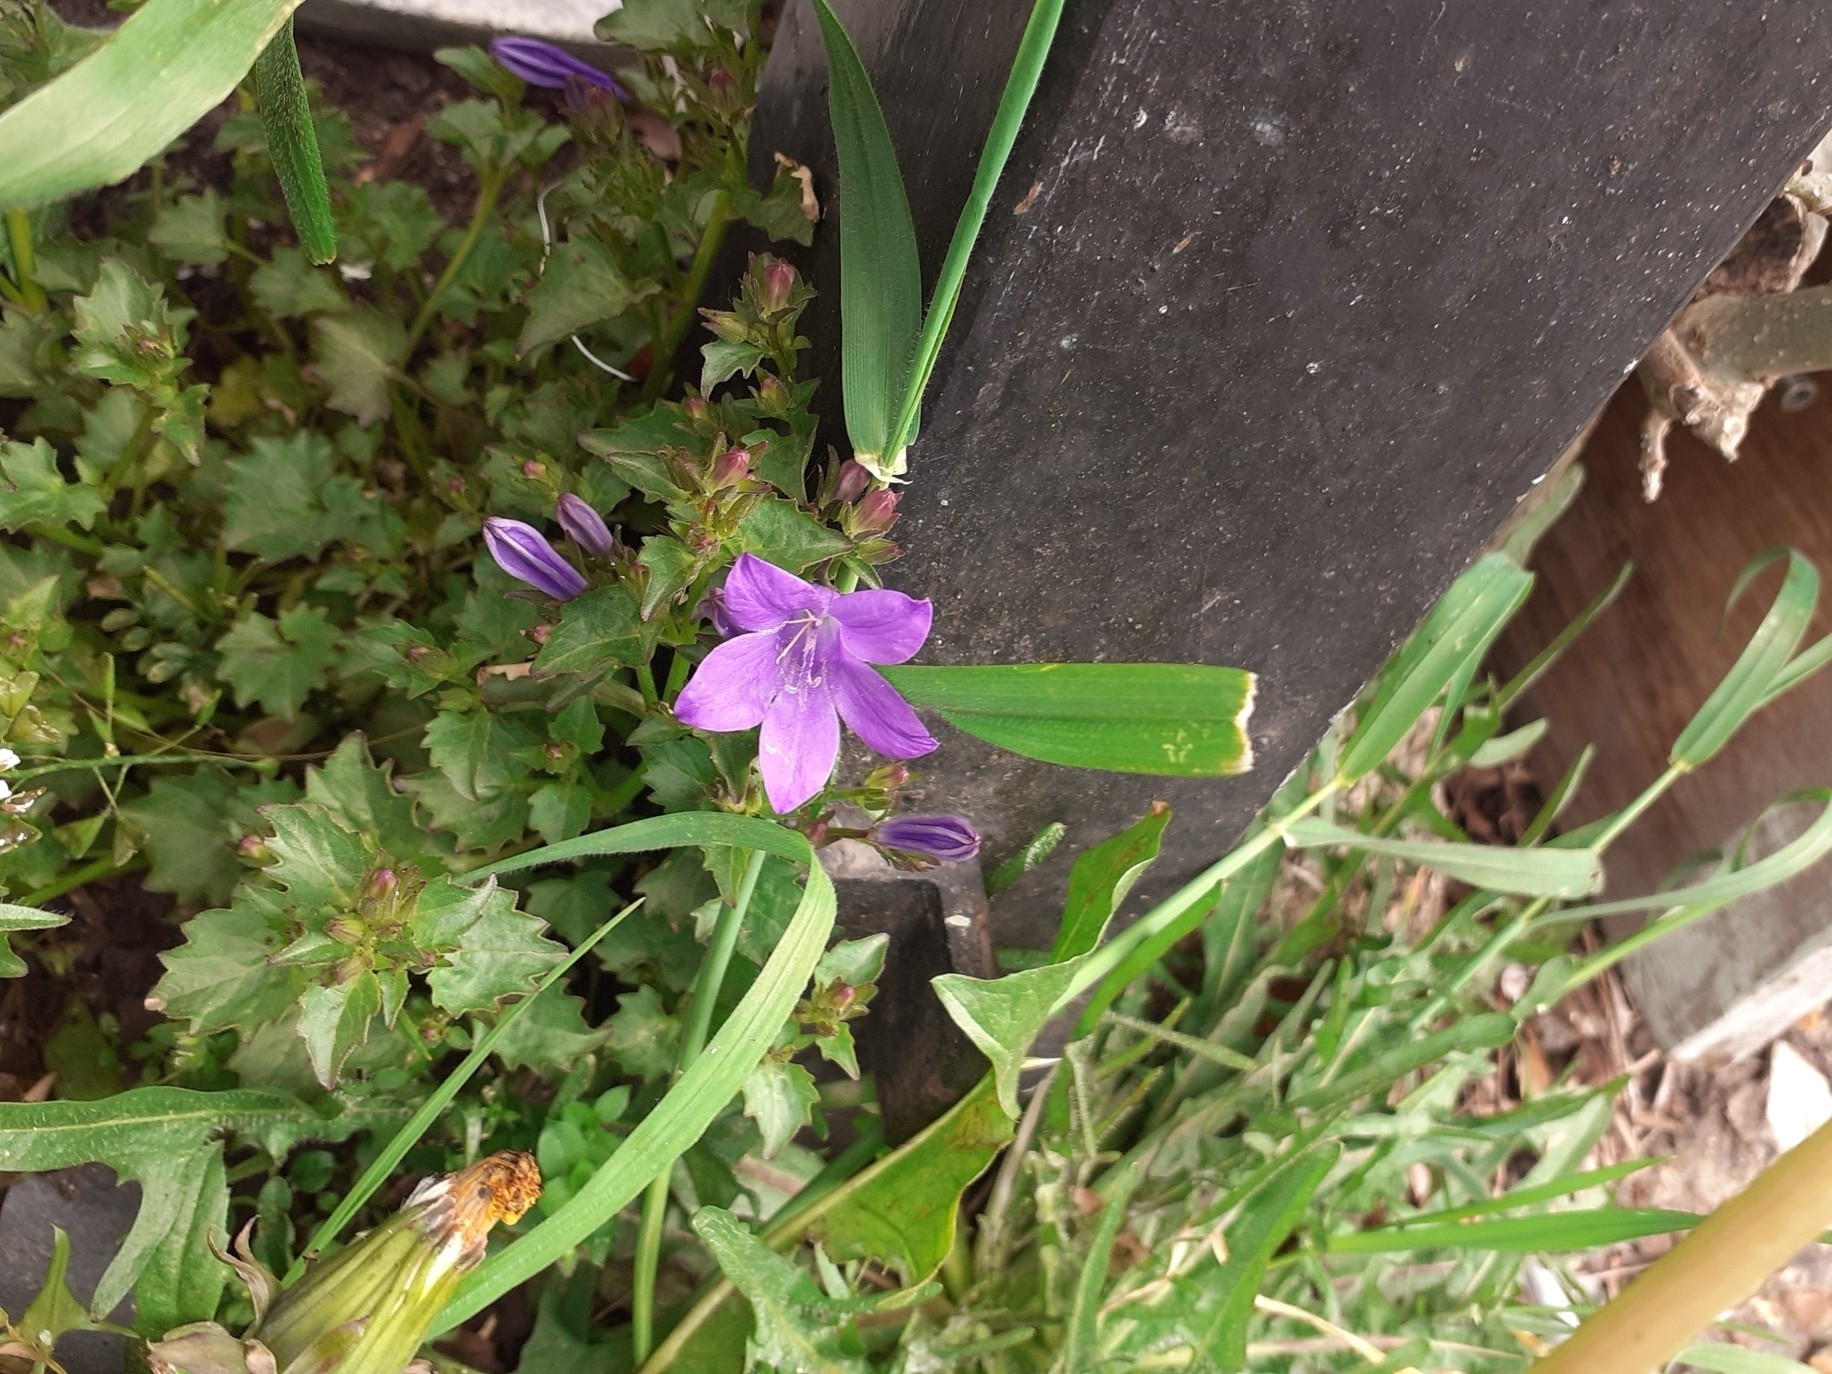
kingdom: Plantae
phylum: Tracheophyta
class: Magnoliopsida
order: Asterales
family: Campanulaceae
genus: Campanula
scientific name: Campanula portenschlagiana
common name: Adria bellflower
